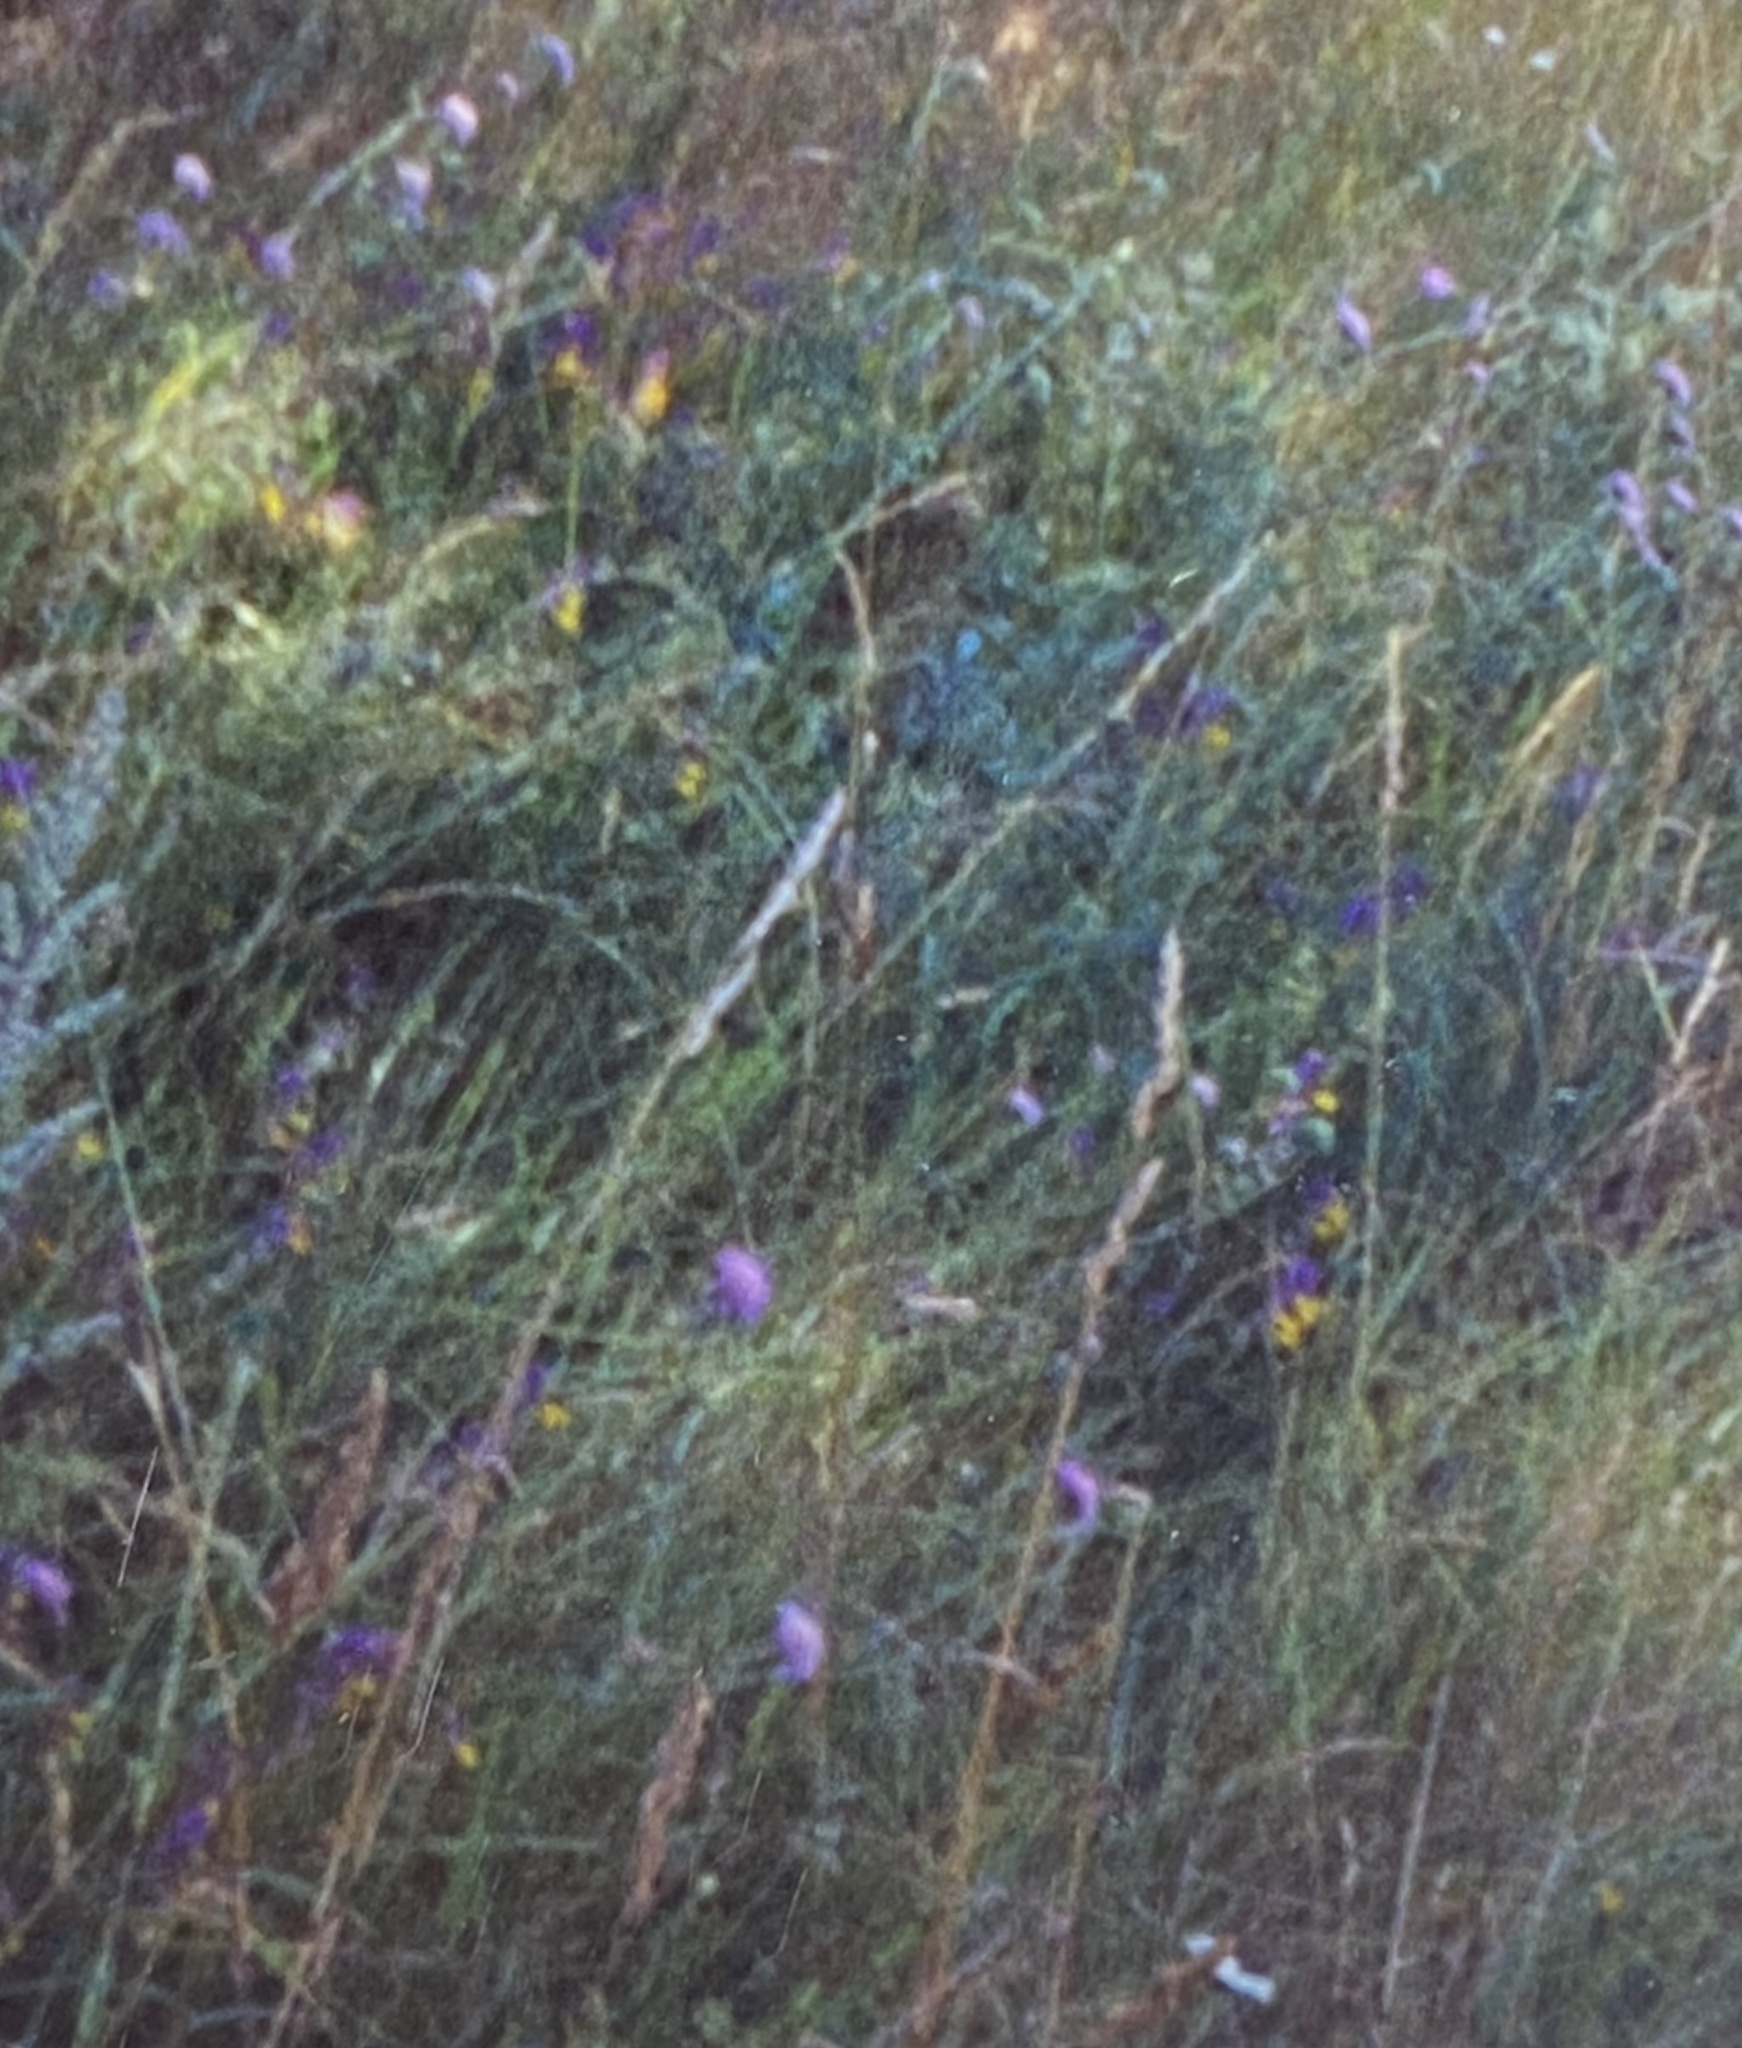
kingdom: Plantae
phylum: Tracheophyta
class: Magnoliopsida
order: Lamiales
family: Orobanchaceae
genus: Melampyrum
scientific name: Melampyrum nemorosum
